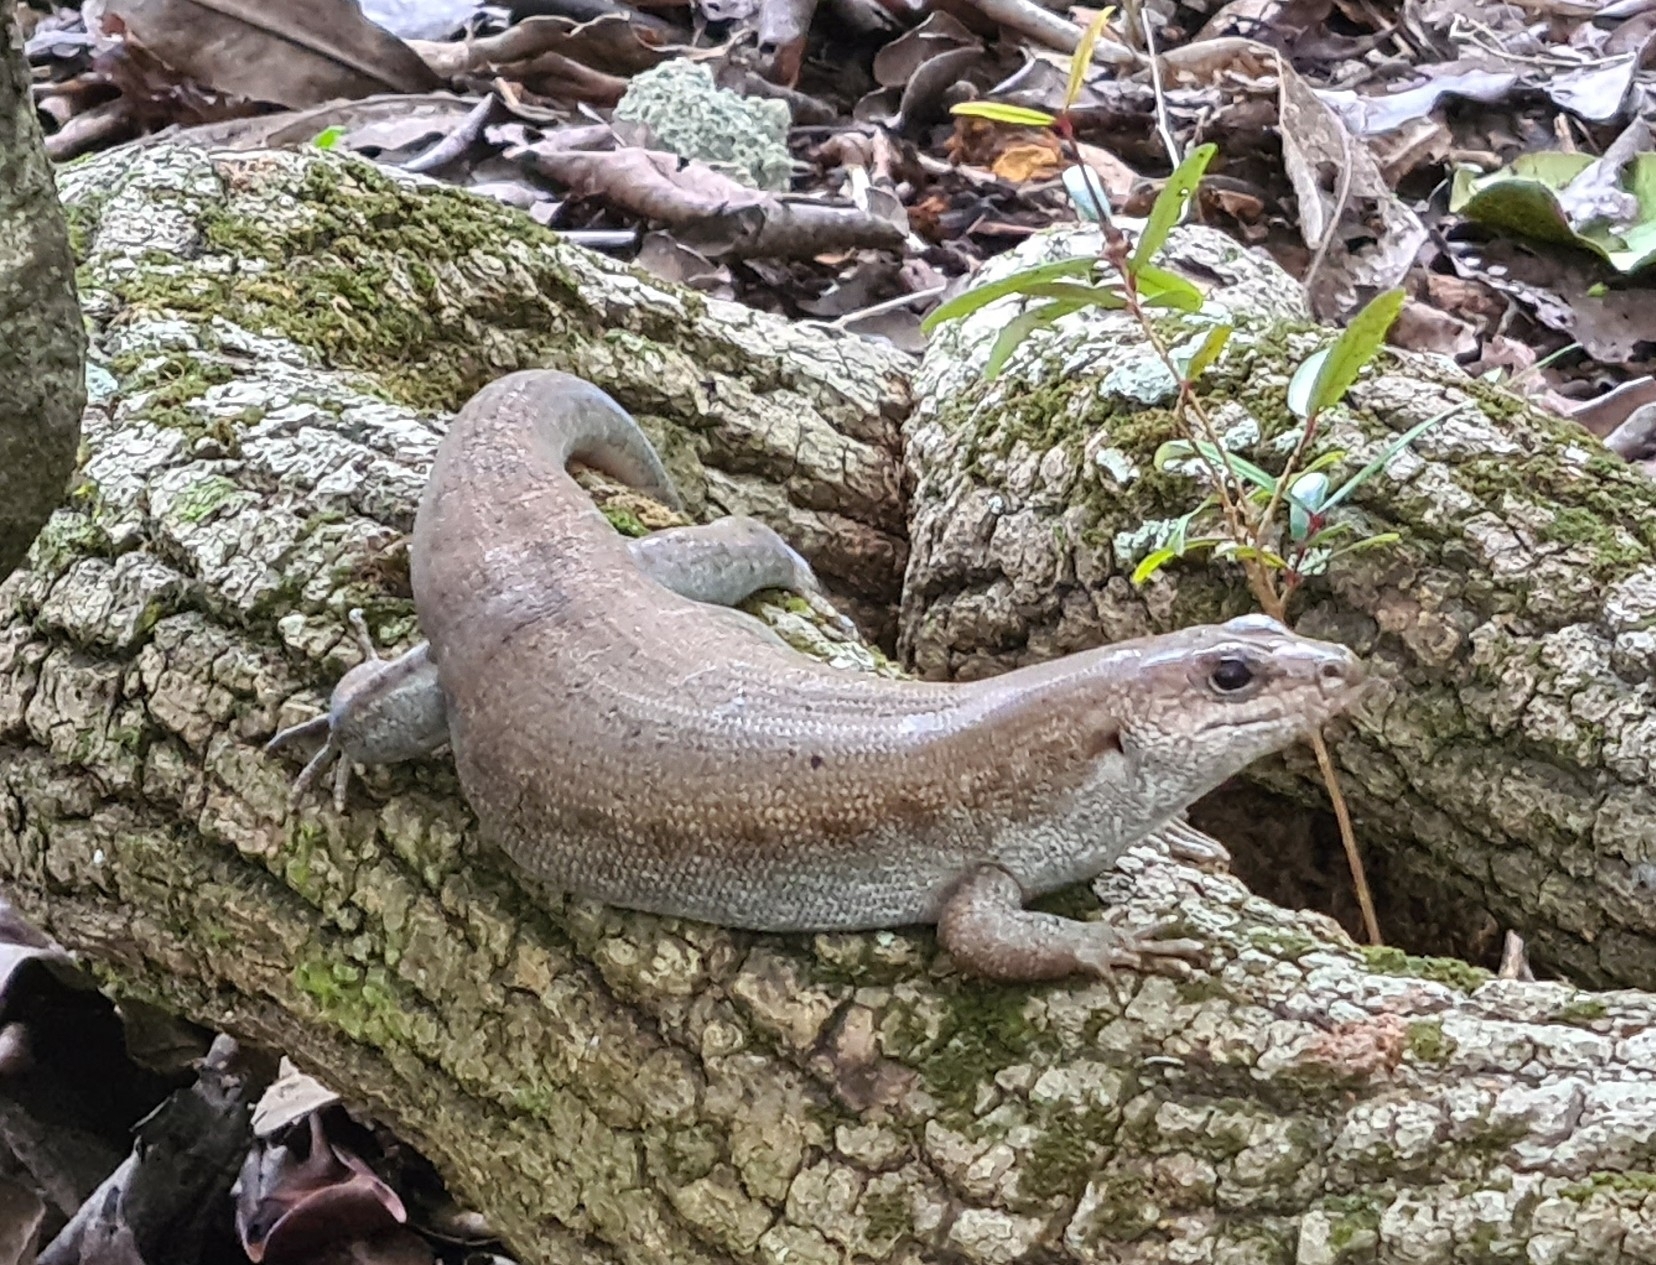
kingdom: Animalia
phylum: Chordata
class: Squamata
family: Scincidae
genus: Leiolopisma
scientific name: Leiolopisma telfairii
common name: Round island skink
